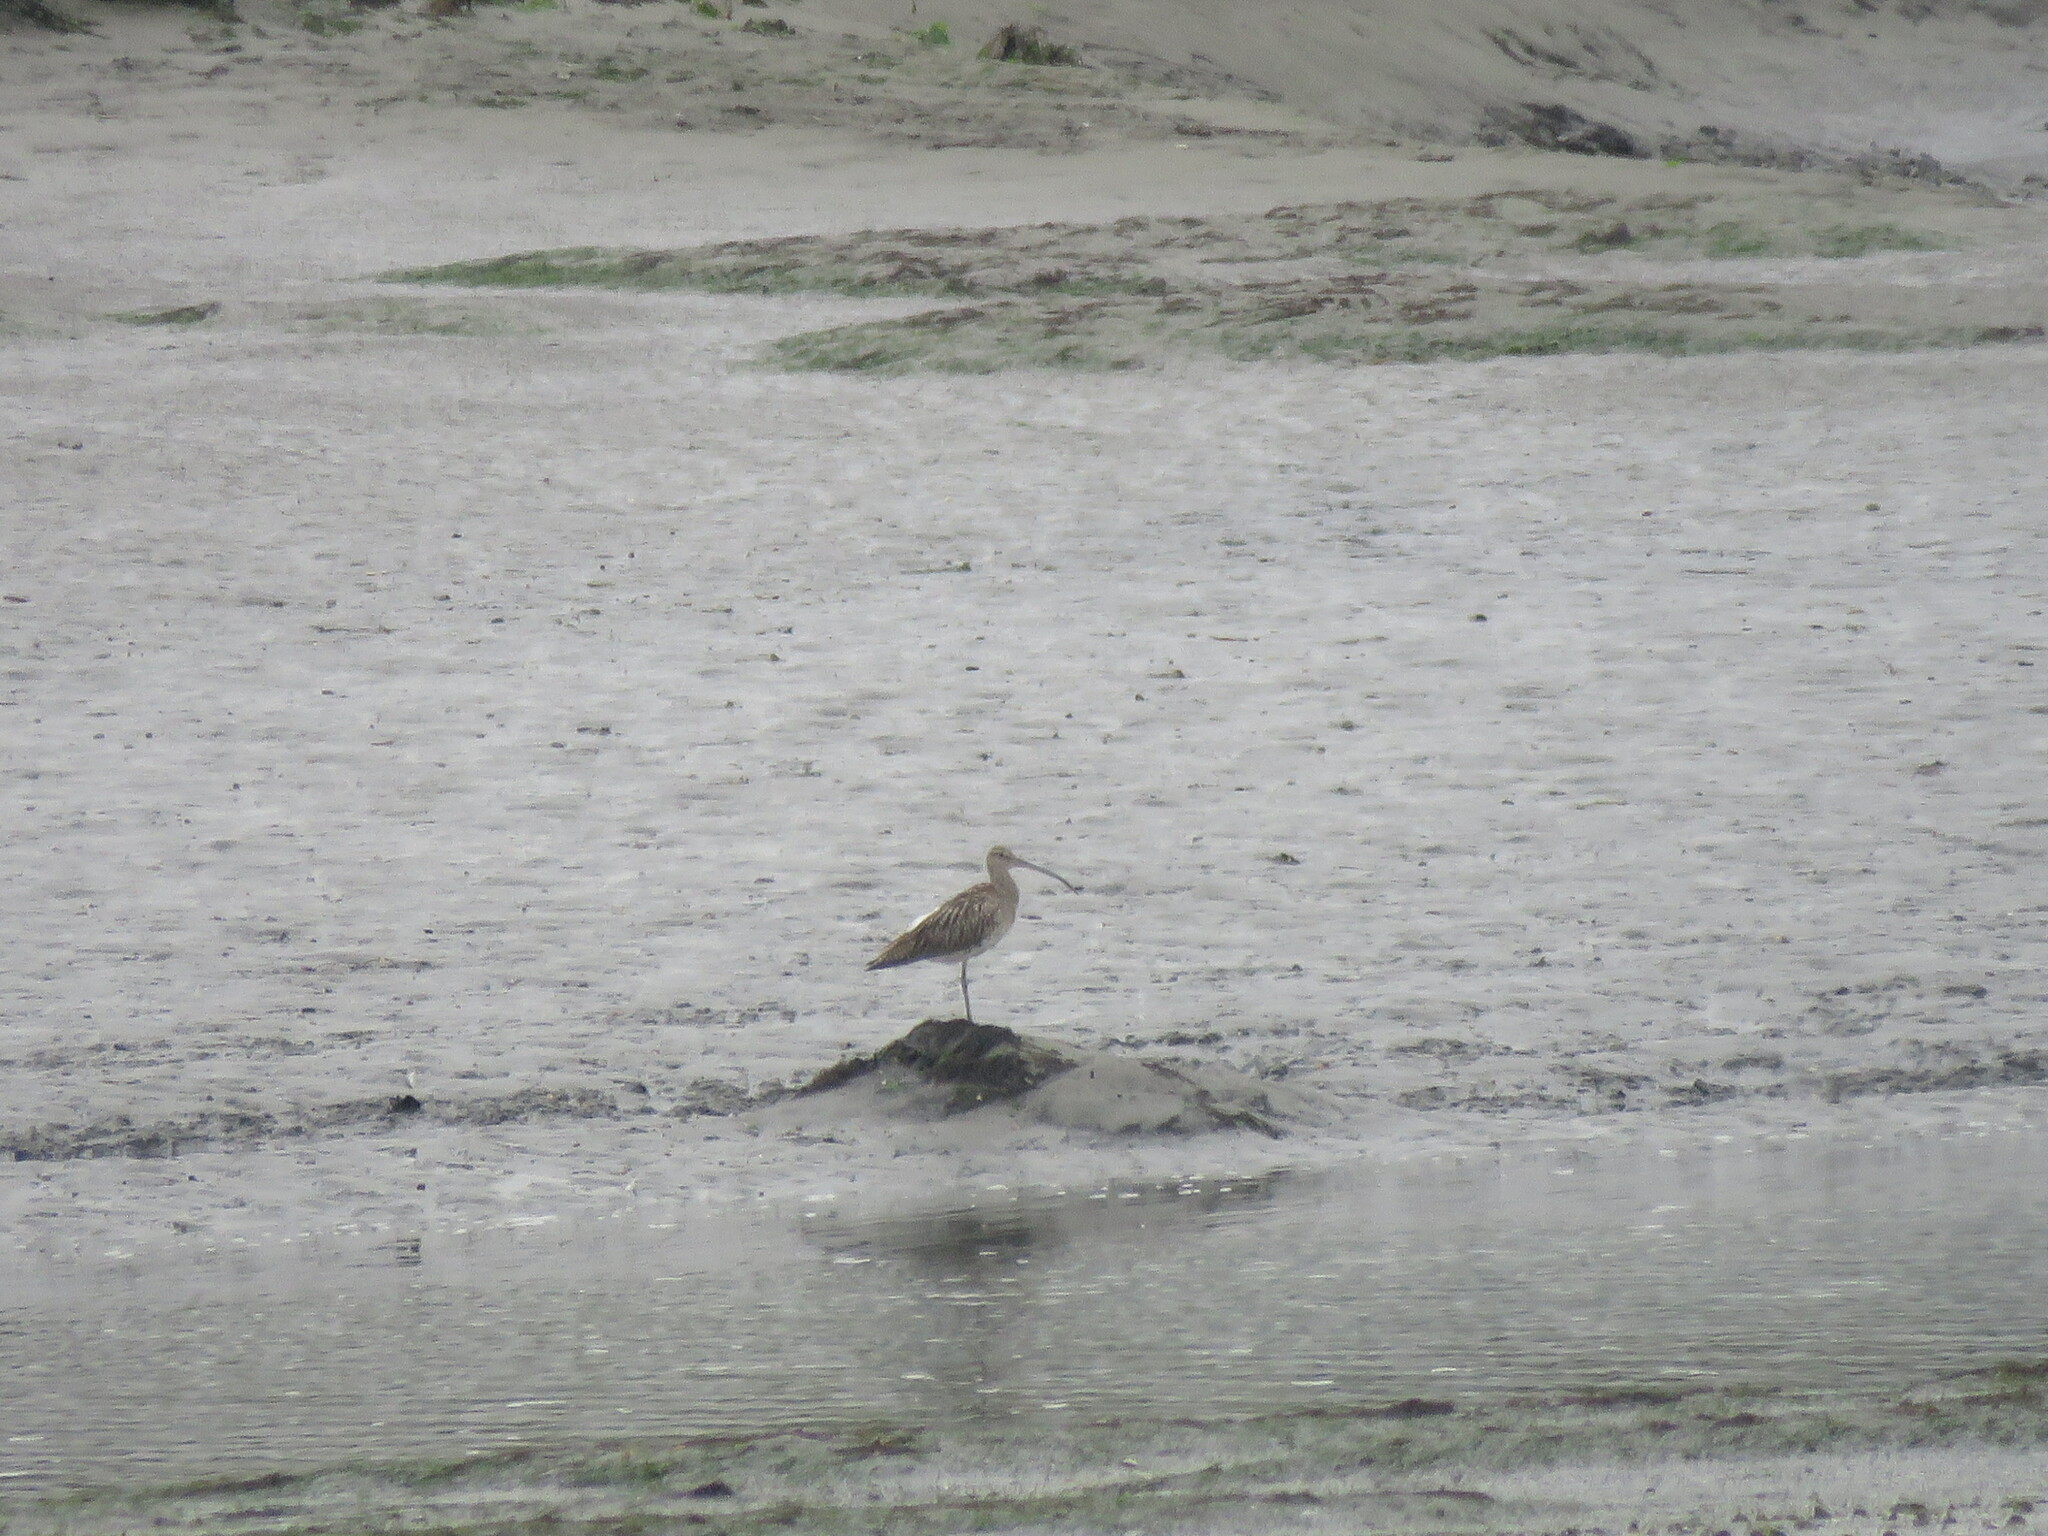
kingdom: Animalia
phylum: Chordata
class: Aves
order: Charadriiformes
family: Scolopacidae
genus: Numenius
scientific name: Numenius arquata
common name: Eurasian curlew
